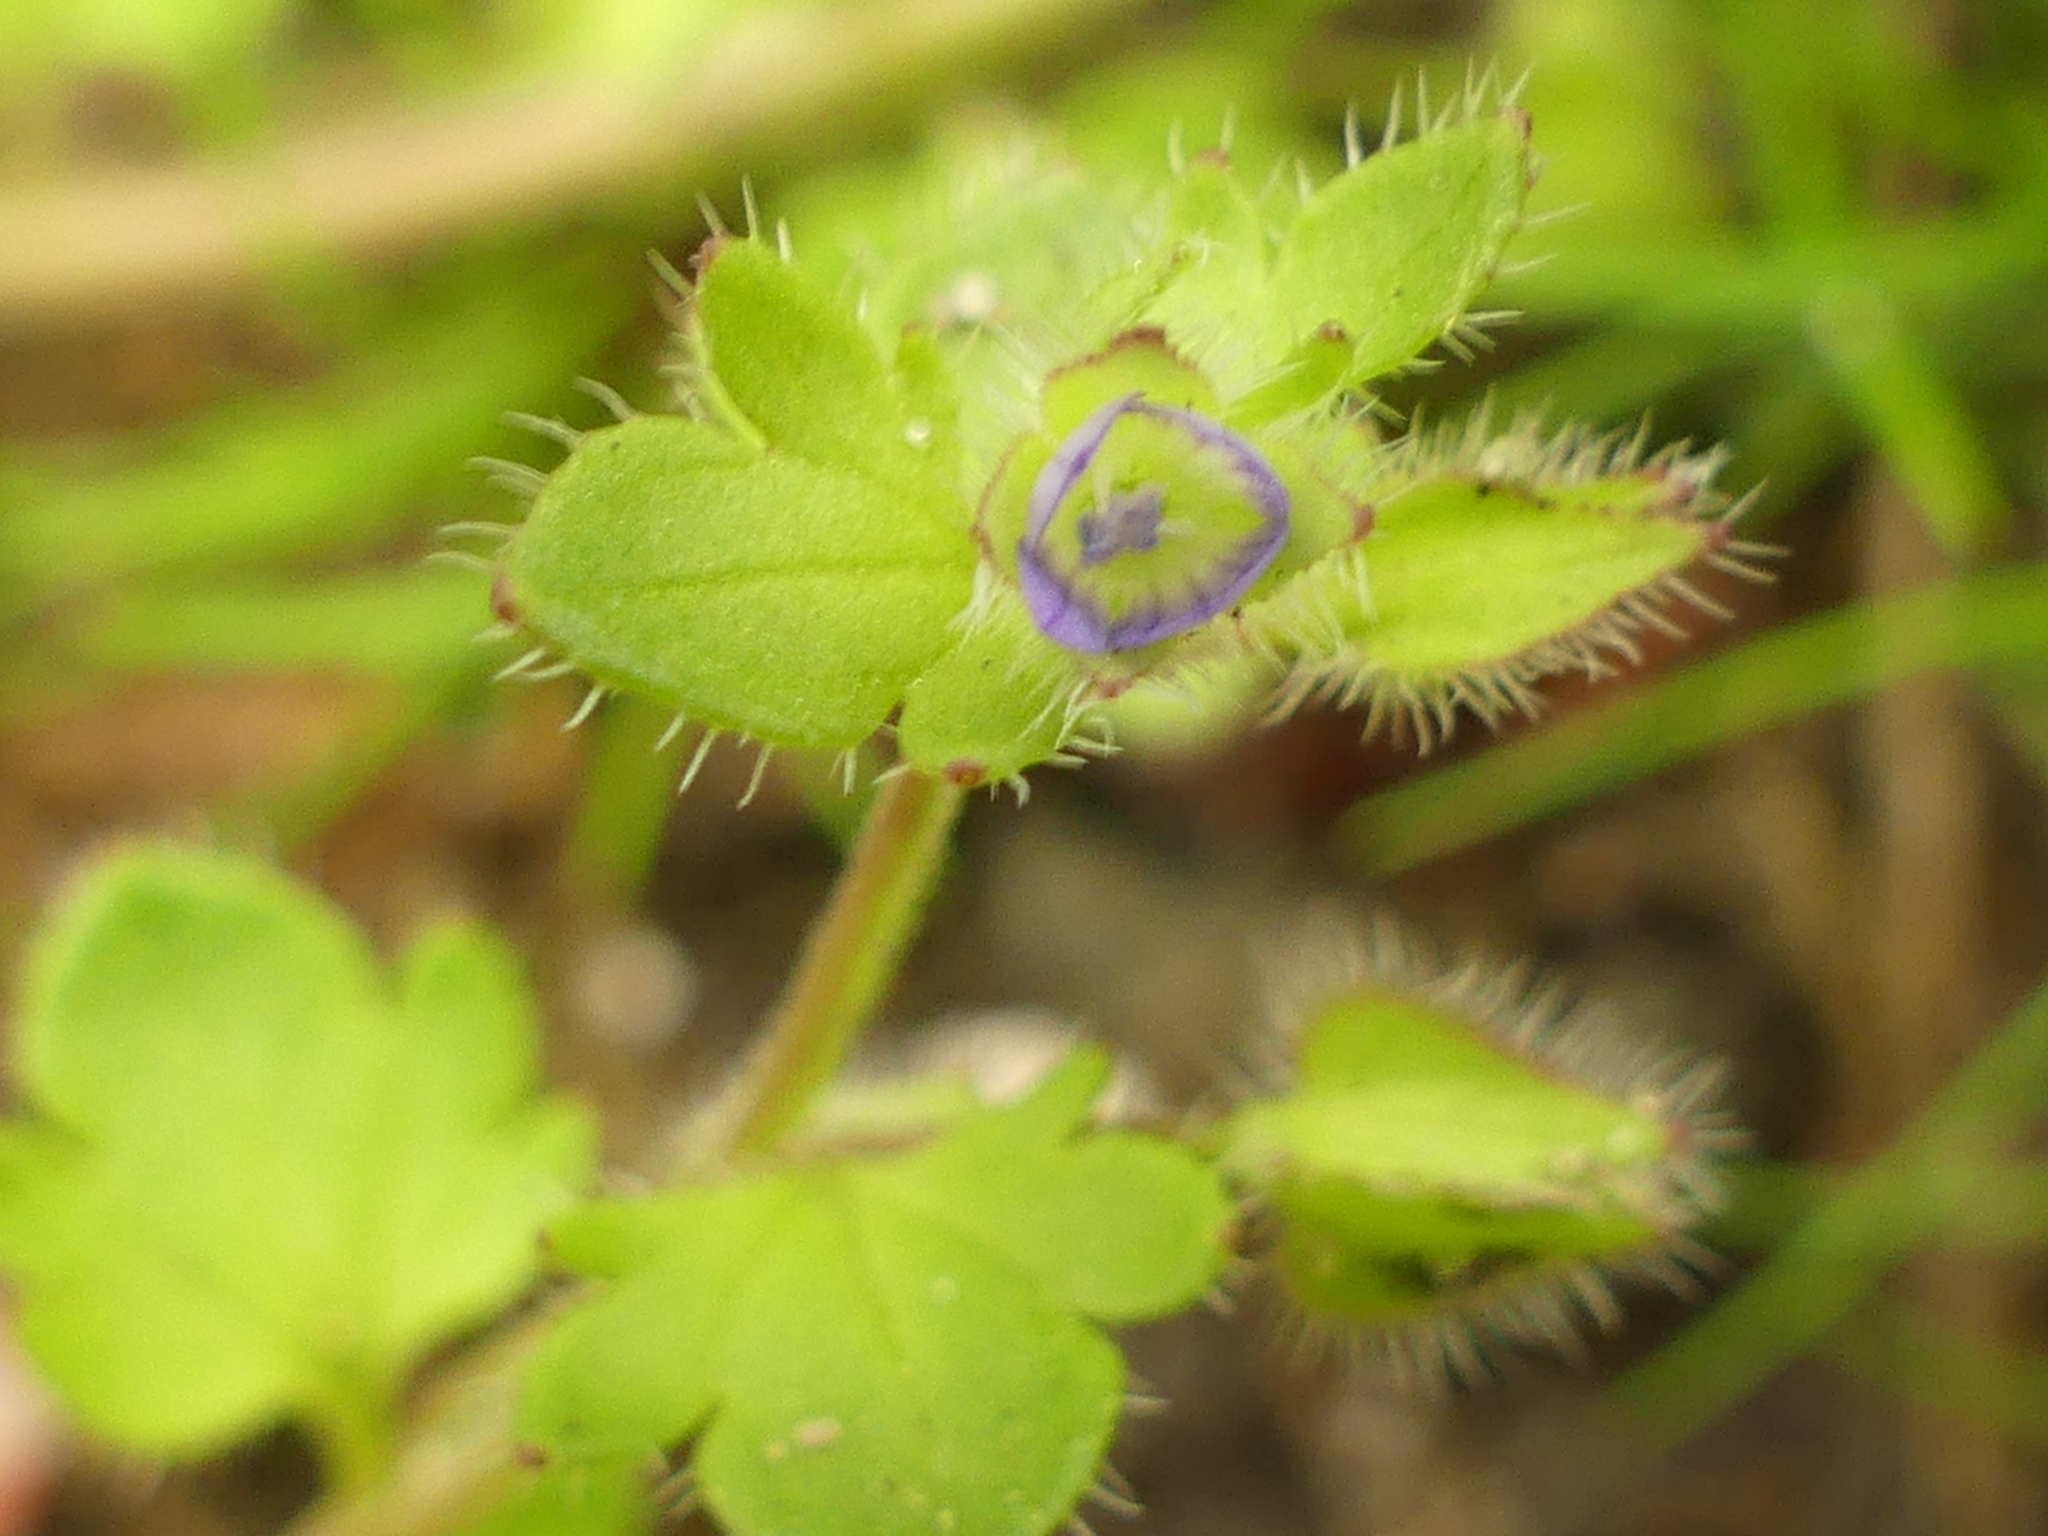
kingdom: Plantae
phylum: Tracheophyta
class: Magnoliopsida
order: Lamiales
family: Plantaginaceae
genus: Veronica
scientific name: Veronica hederifolia
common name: Ivy-leaved speedwell
